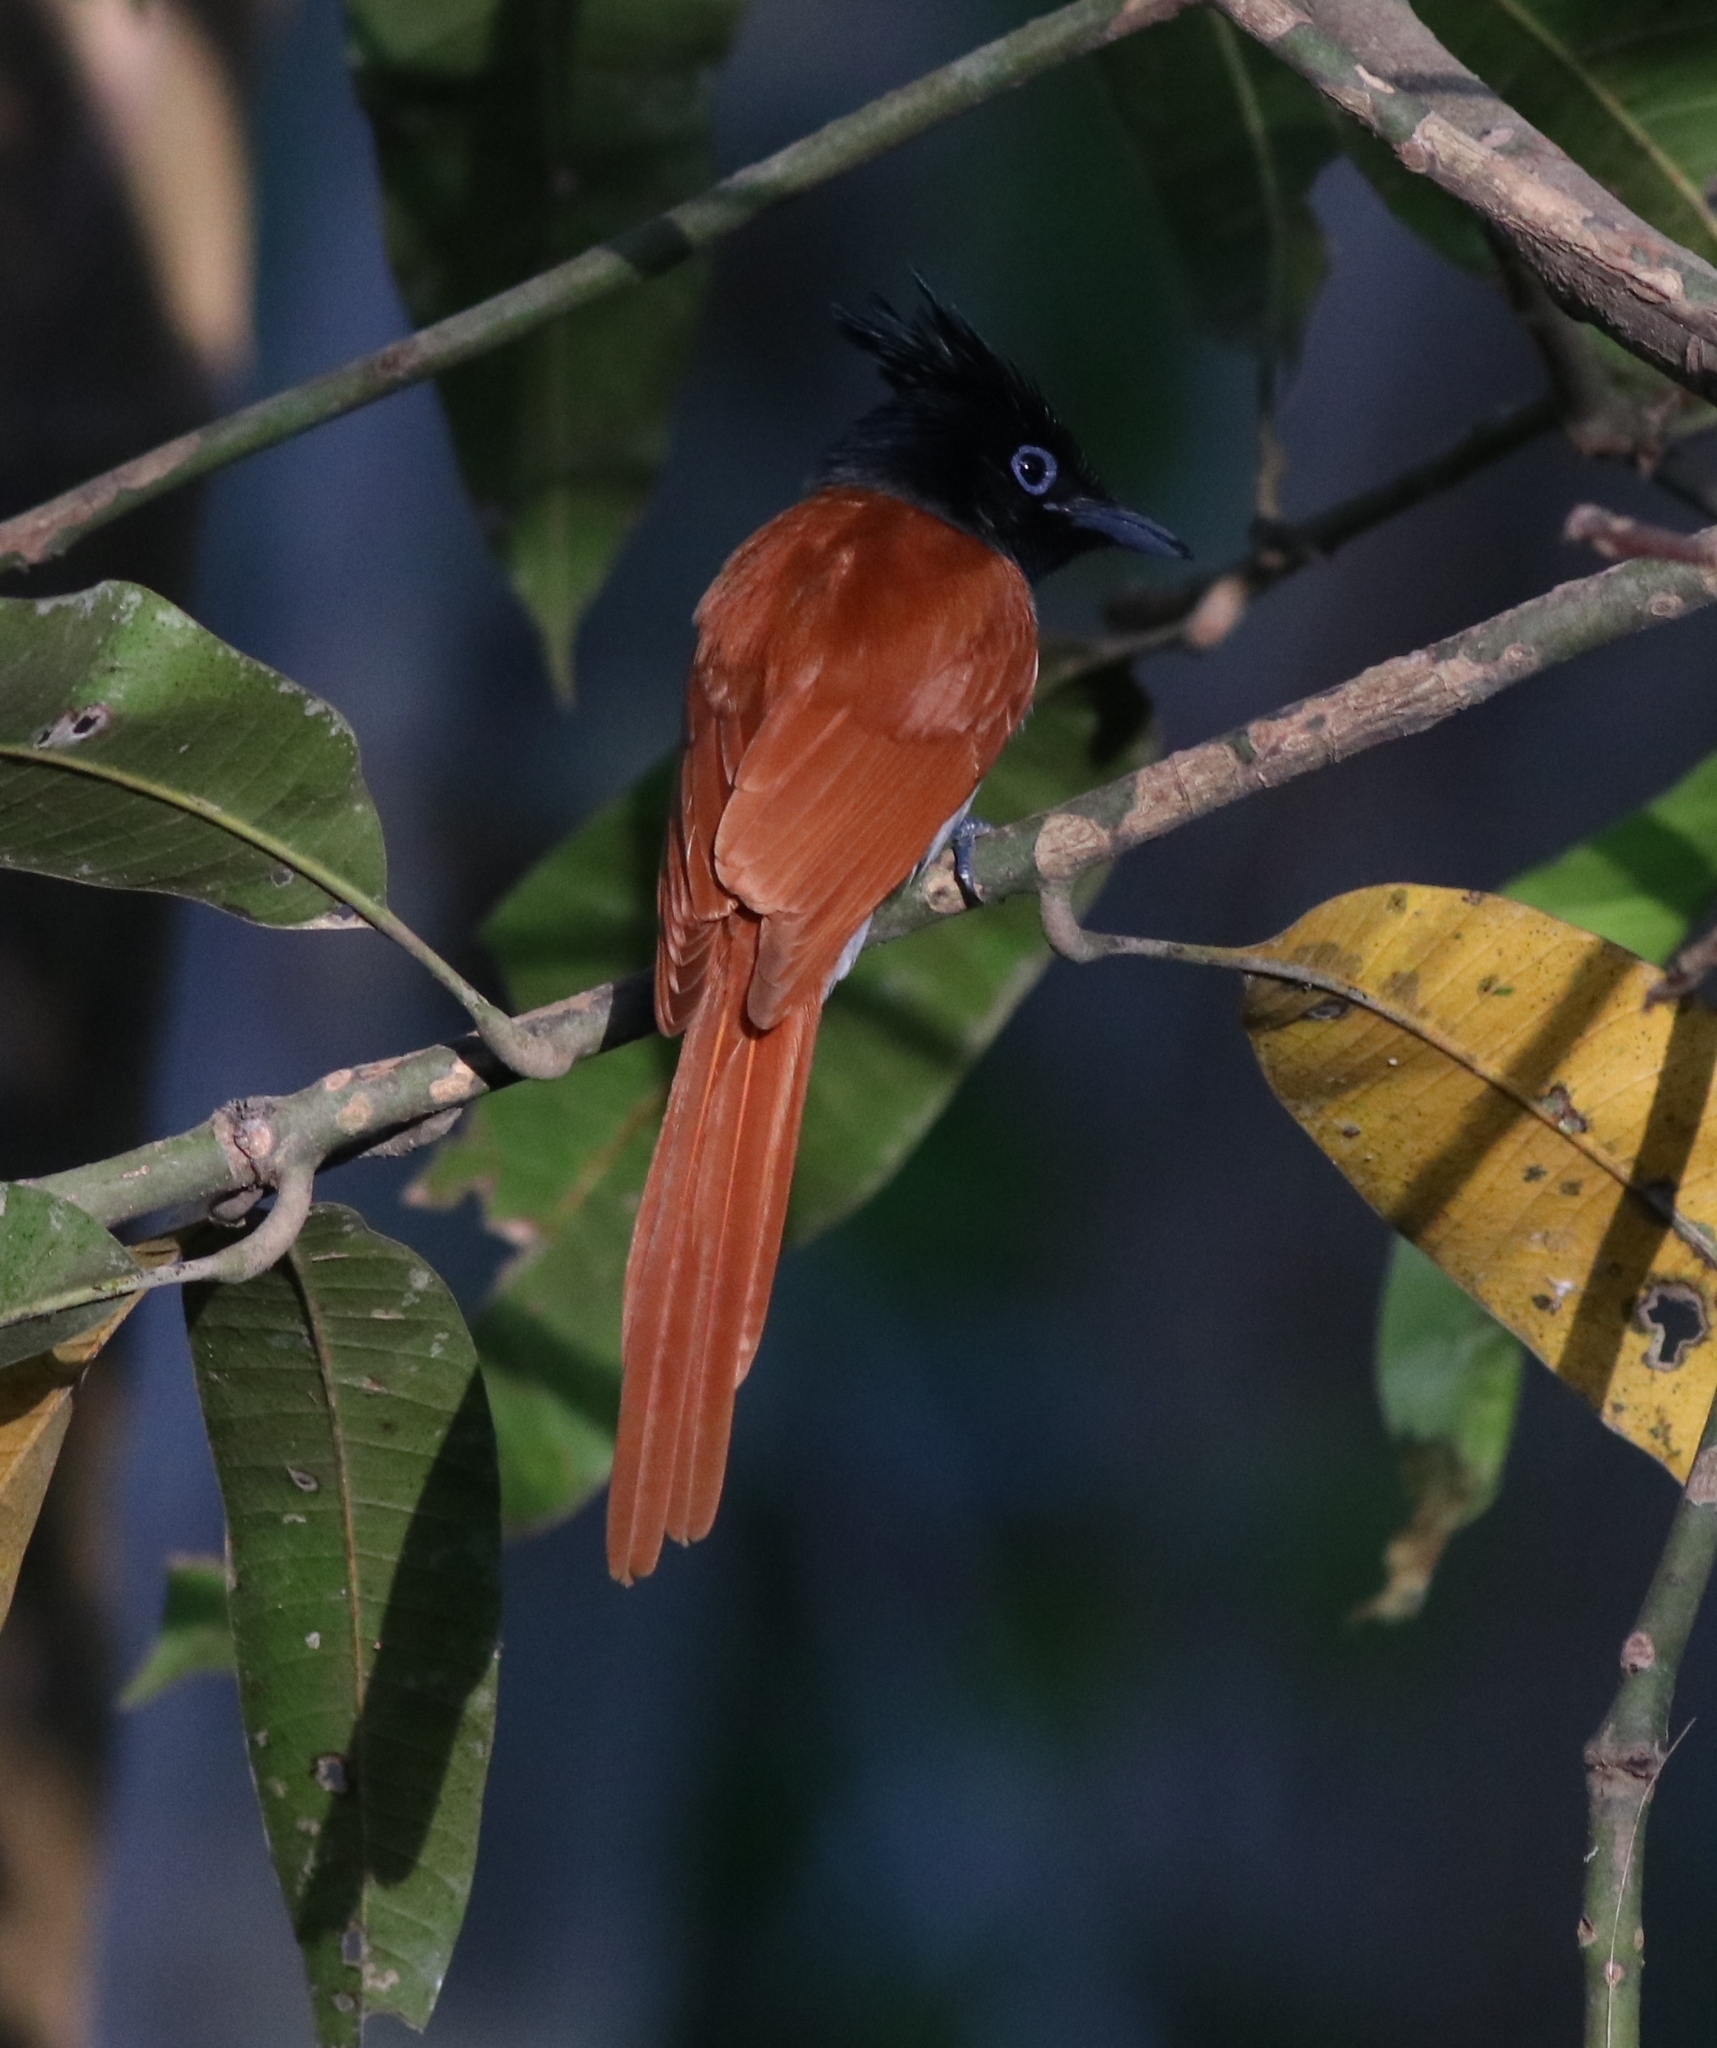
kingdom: Animalia
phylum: Chordata
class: Aves
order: Passeriformes
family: Monarchidae
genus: Terpsiphone
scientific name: Terpsiphone paradisi
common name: Indian paradise flycatcher
